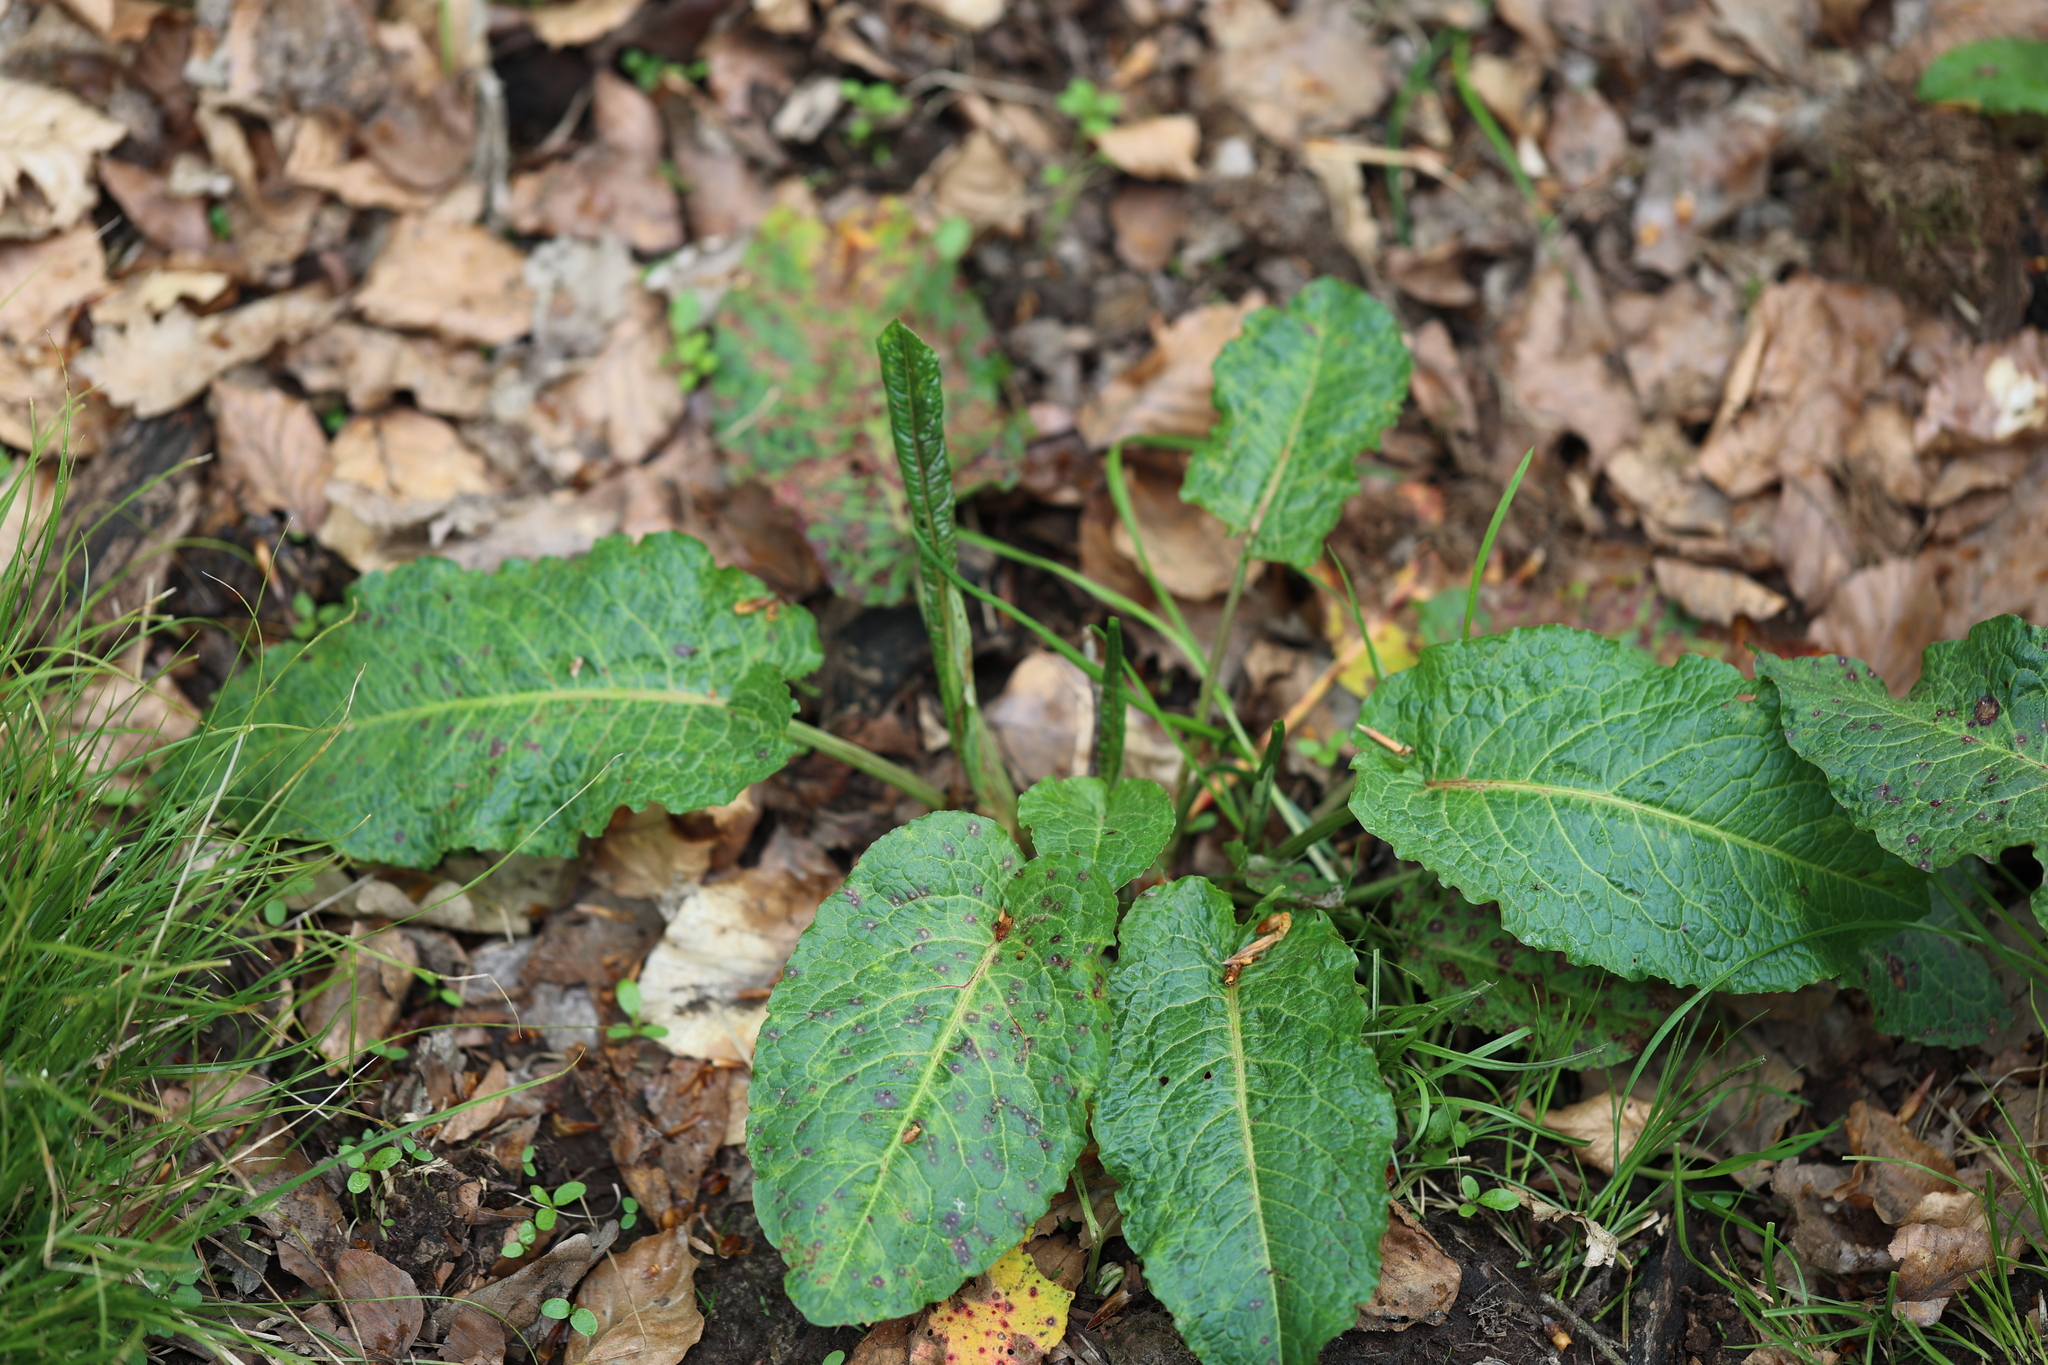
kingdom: Plantae
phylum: Tracheophyta
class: Magnoliopsida
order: Caryophyllales
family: Polygonaceae
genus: Rumex
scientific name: Rumex obtusifolius
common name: Bitter dock
